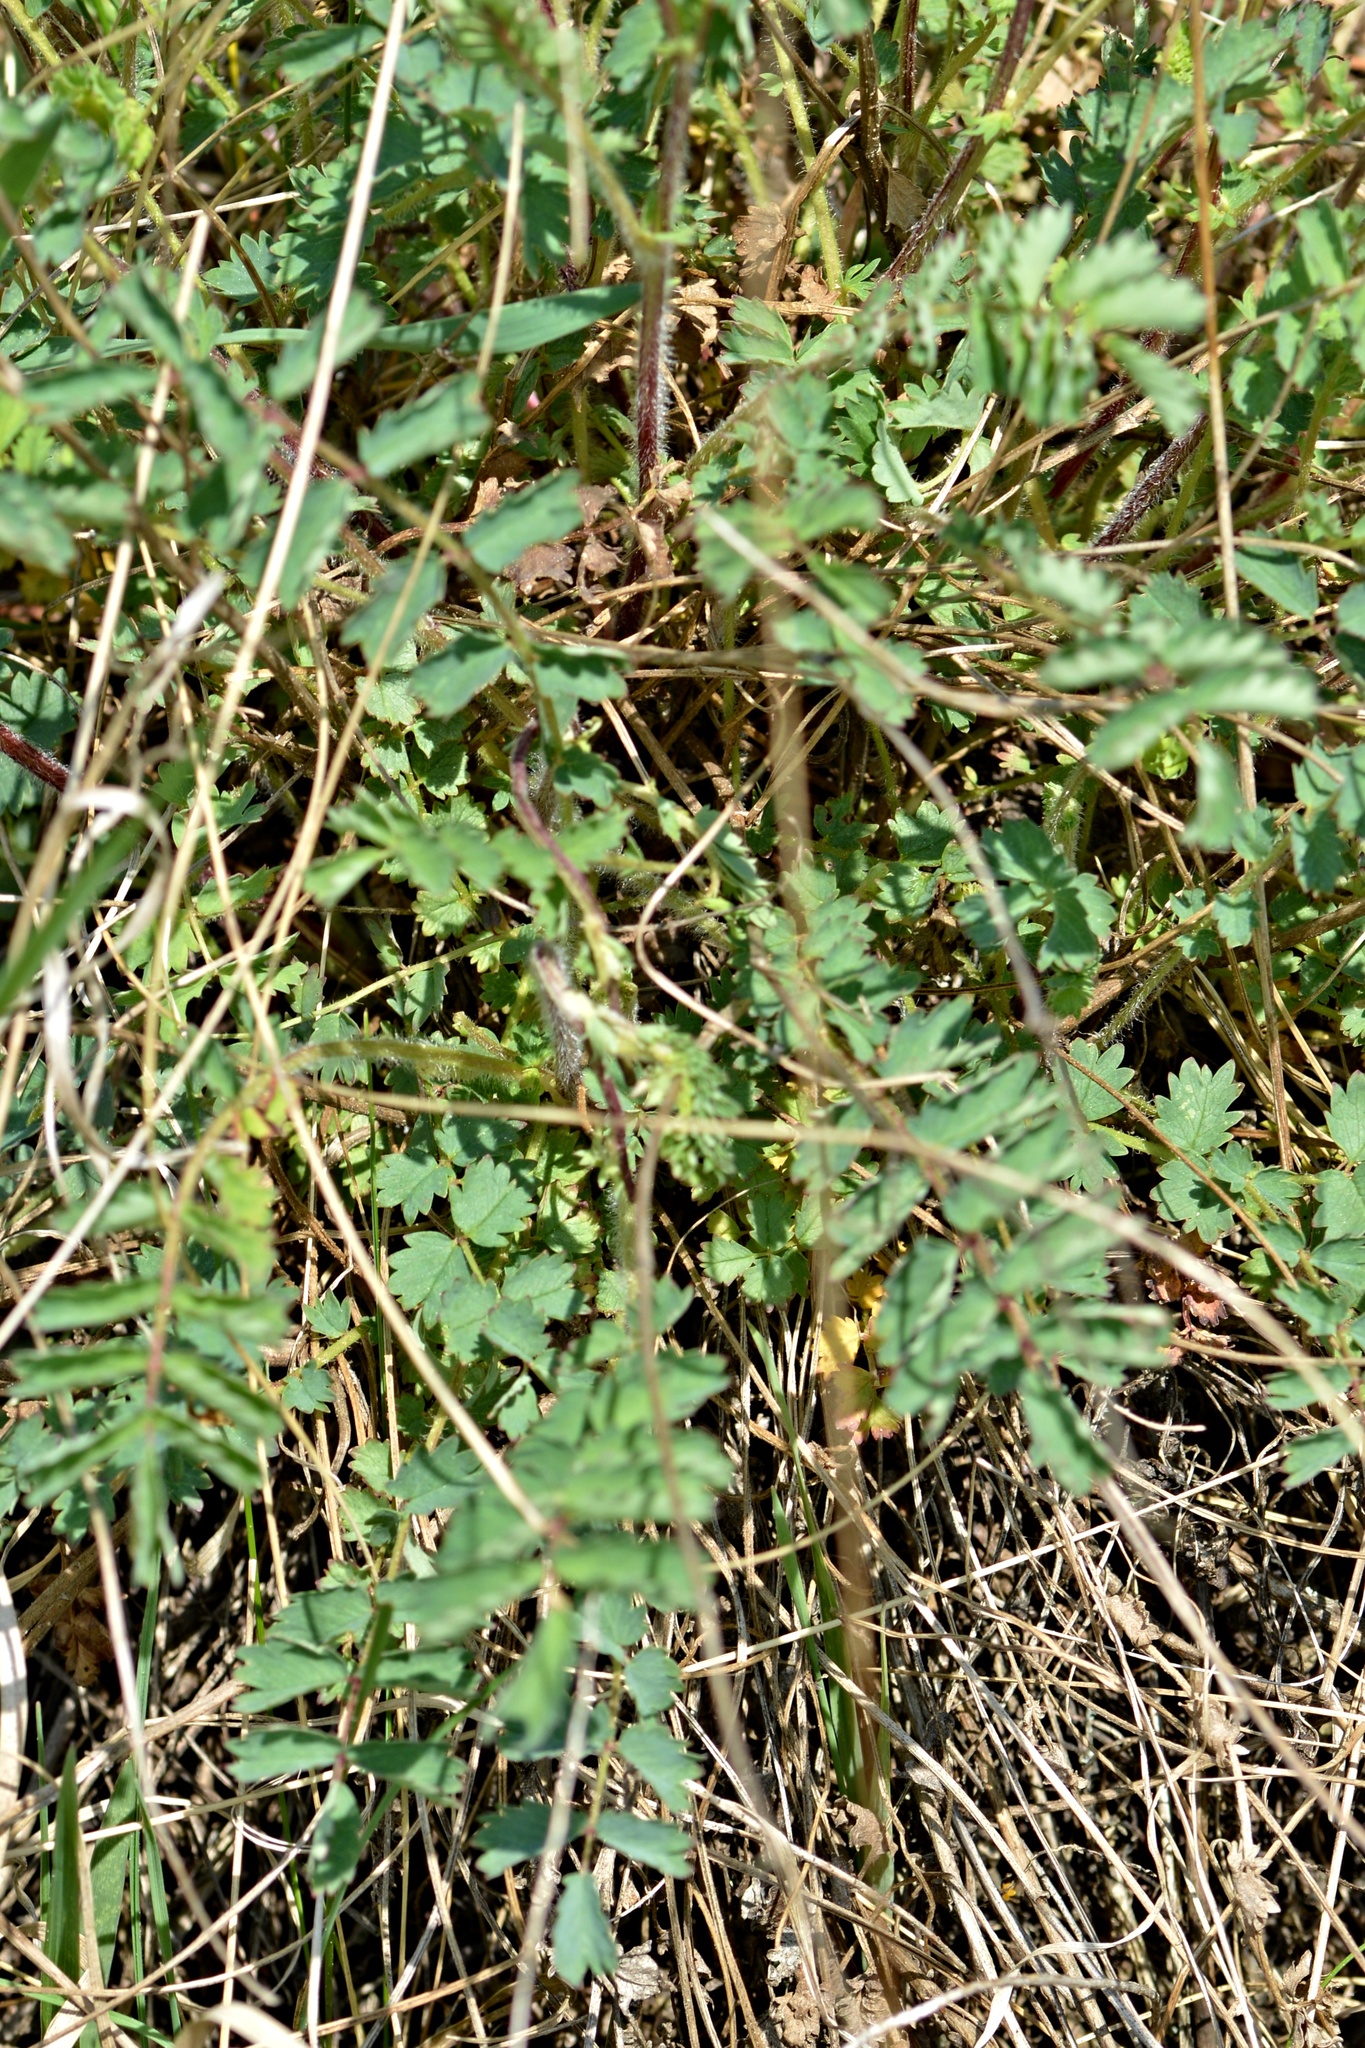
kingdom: Plantae
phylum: Tracheophyta
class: Magnoliopsida
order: Rosales
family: Rosaceae
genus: Poterium
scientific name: Poterium sanguisorba
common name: Salad burnet
